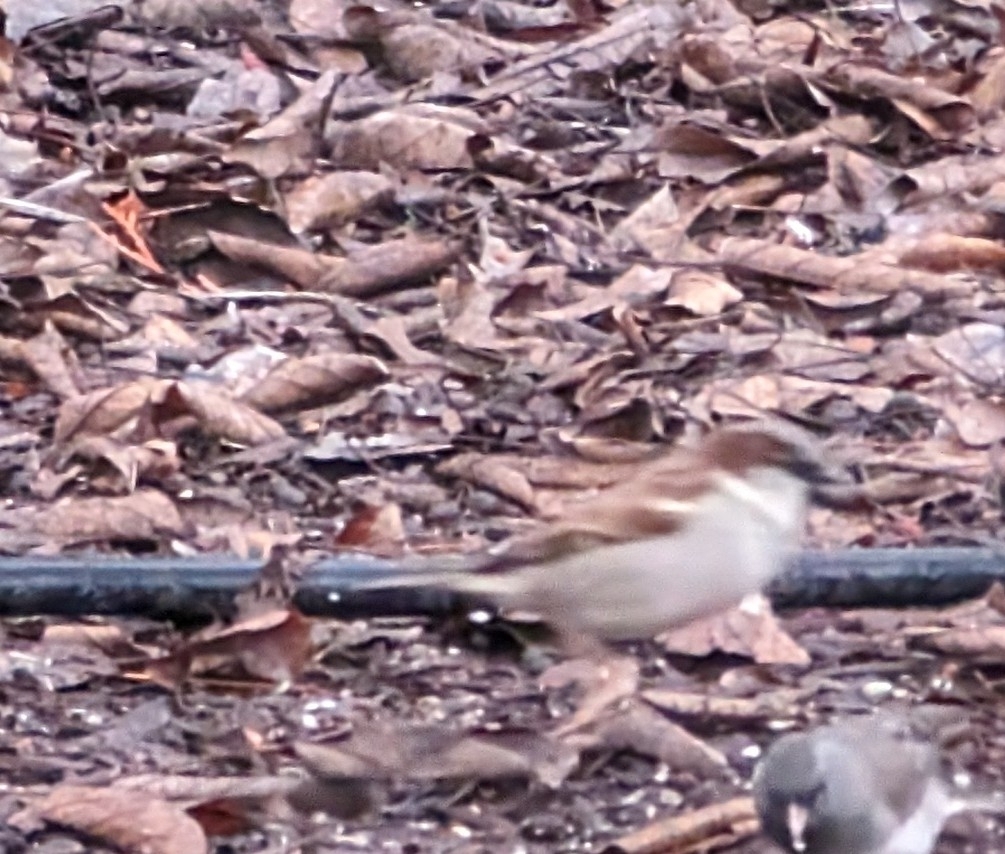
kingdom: Animalia
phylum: Chordata
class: Aves
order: Passeriformes
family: Passeridae
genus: Passer
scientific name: Passer domesticus
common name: House sparrow
